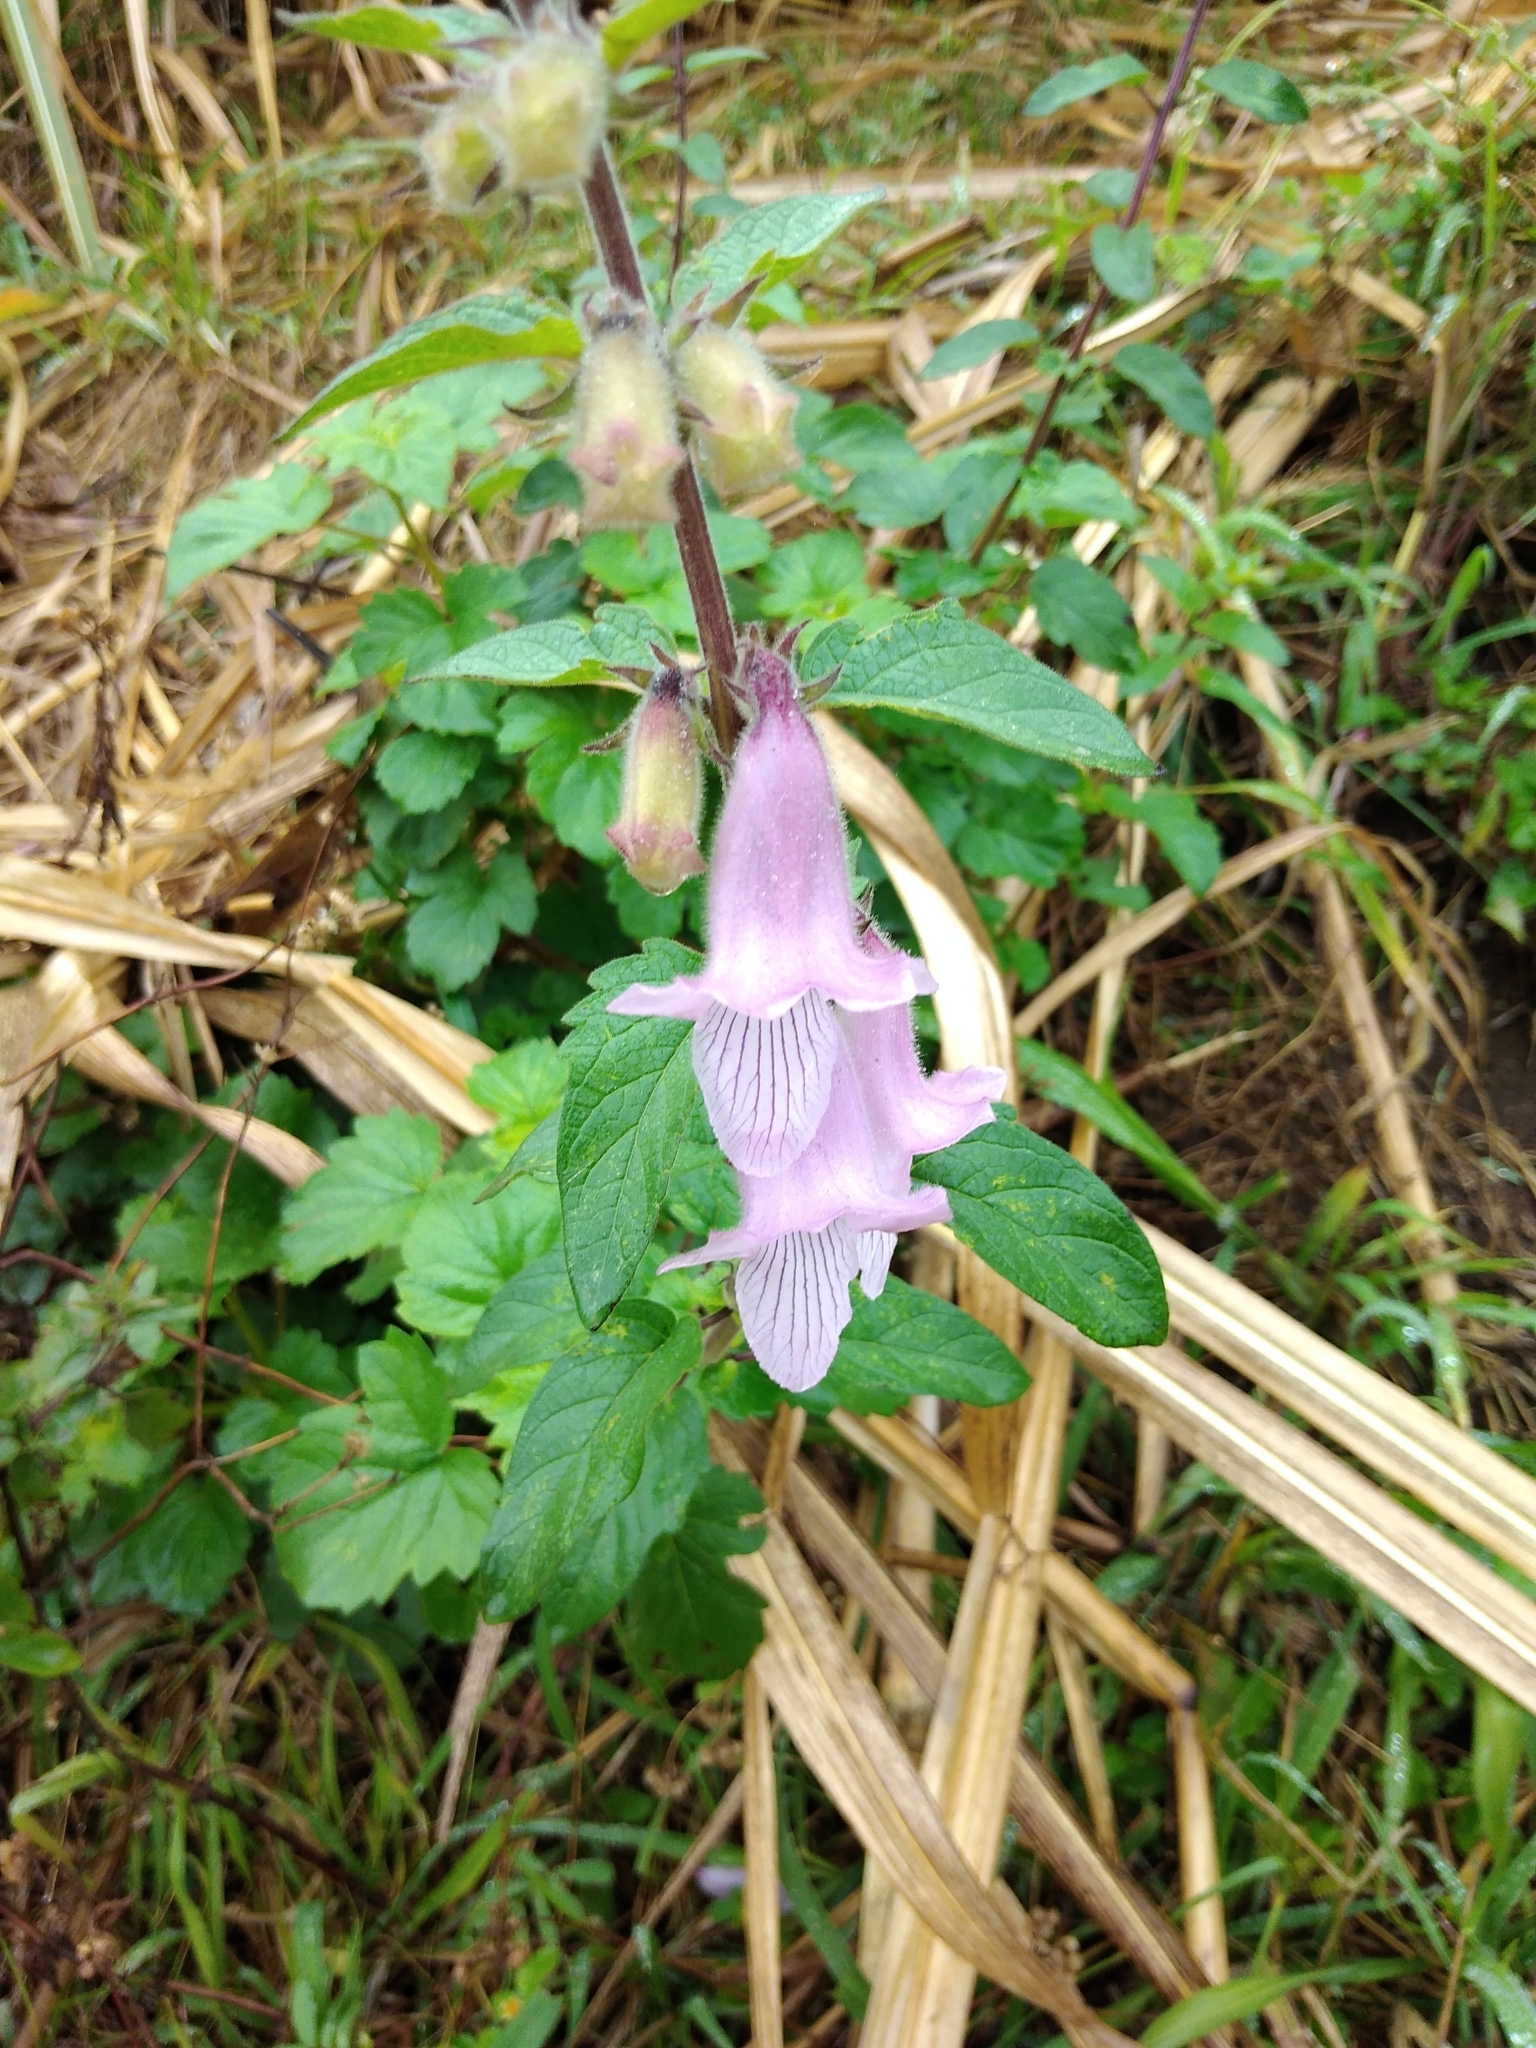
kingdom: Plantae
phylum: Tracheophyta
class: Magnoliopsida
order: Lamiales
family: Pedaliaceae
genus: Sesamum
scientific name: Sesamum trilobum
